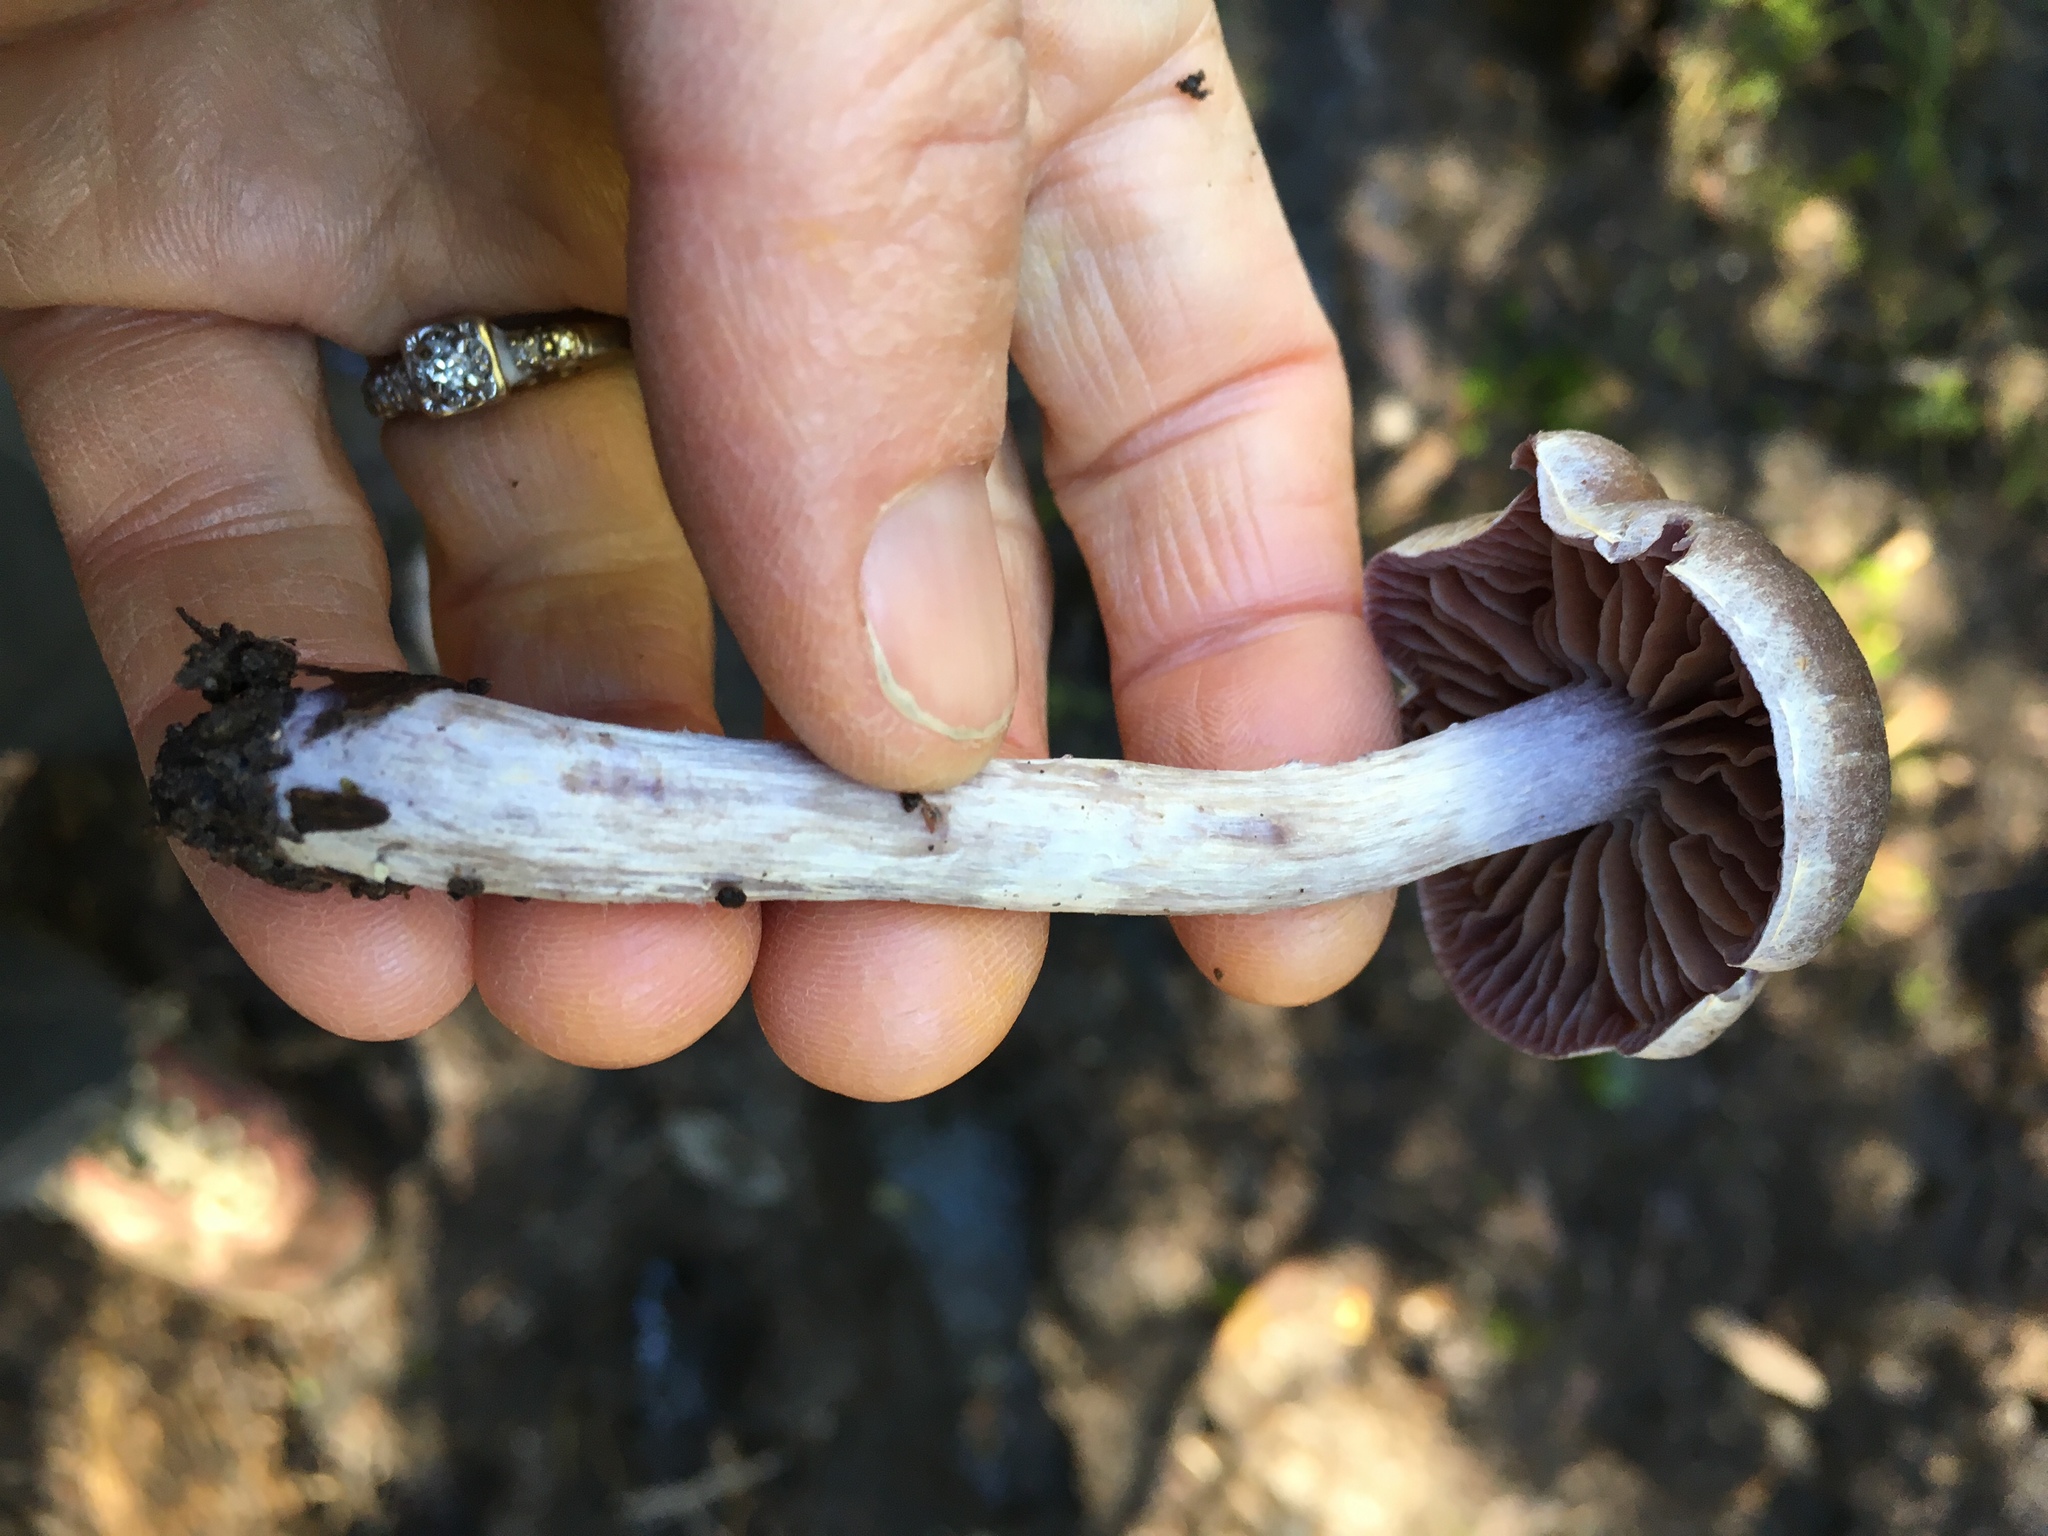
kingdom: Fungi
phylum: Basidiomycota
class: Agaricomycetes
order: Agaricales
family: Cortinariaceae
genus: Cortinarius
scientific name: Cortinarius evernius
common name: Silky webcap
